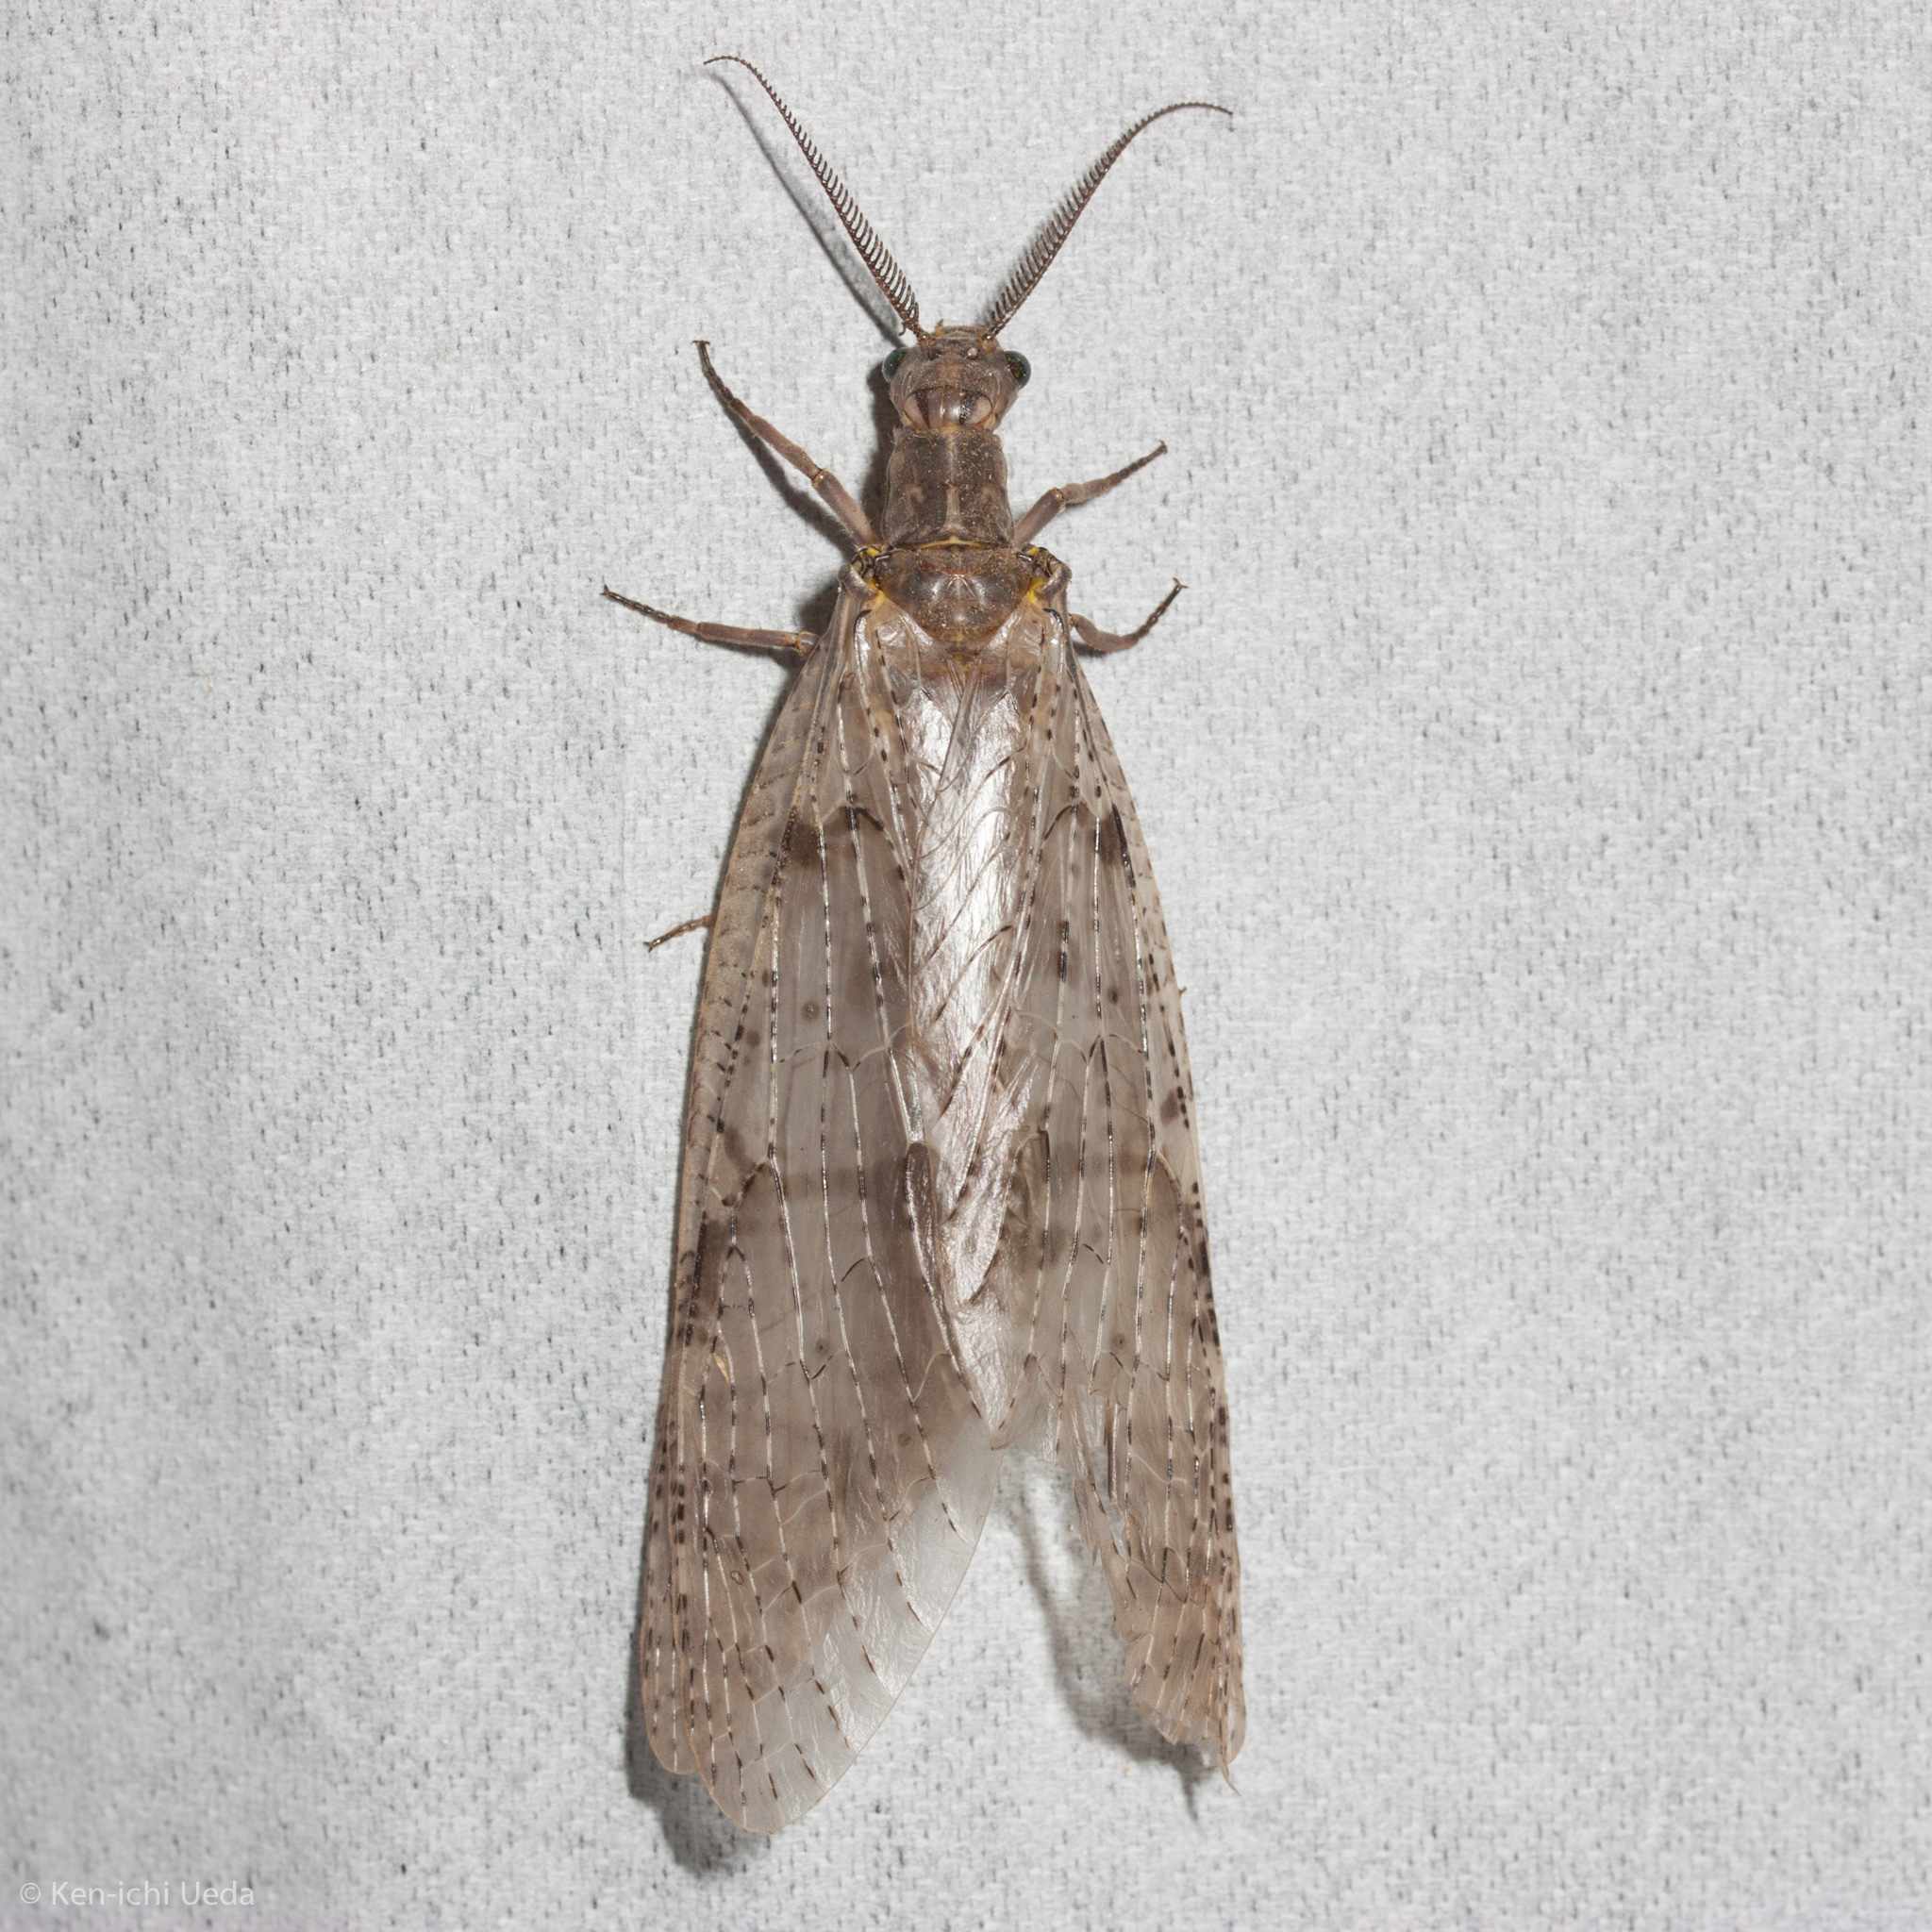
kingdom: Animalia
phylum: Arthropoda
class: Insecta
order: Megaloptera
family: Corydalidae
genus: Chauliodes
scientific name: Chauliodes pectinicornis
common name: Summer fishfly
